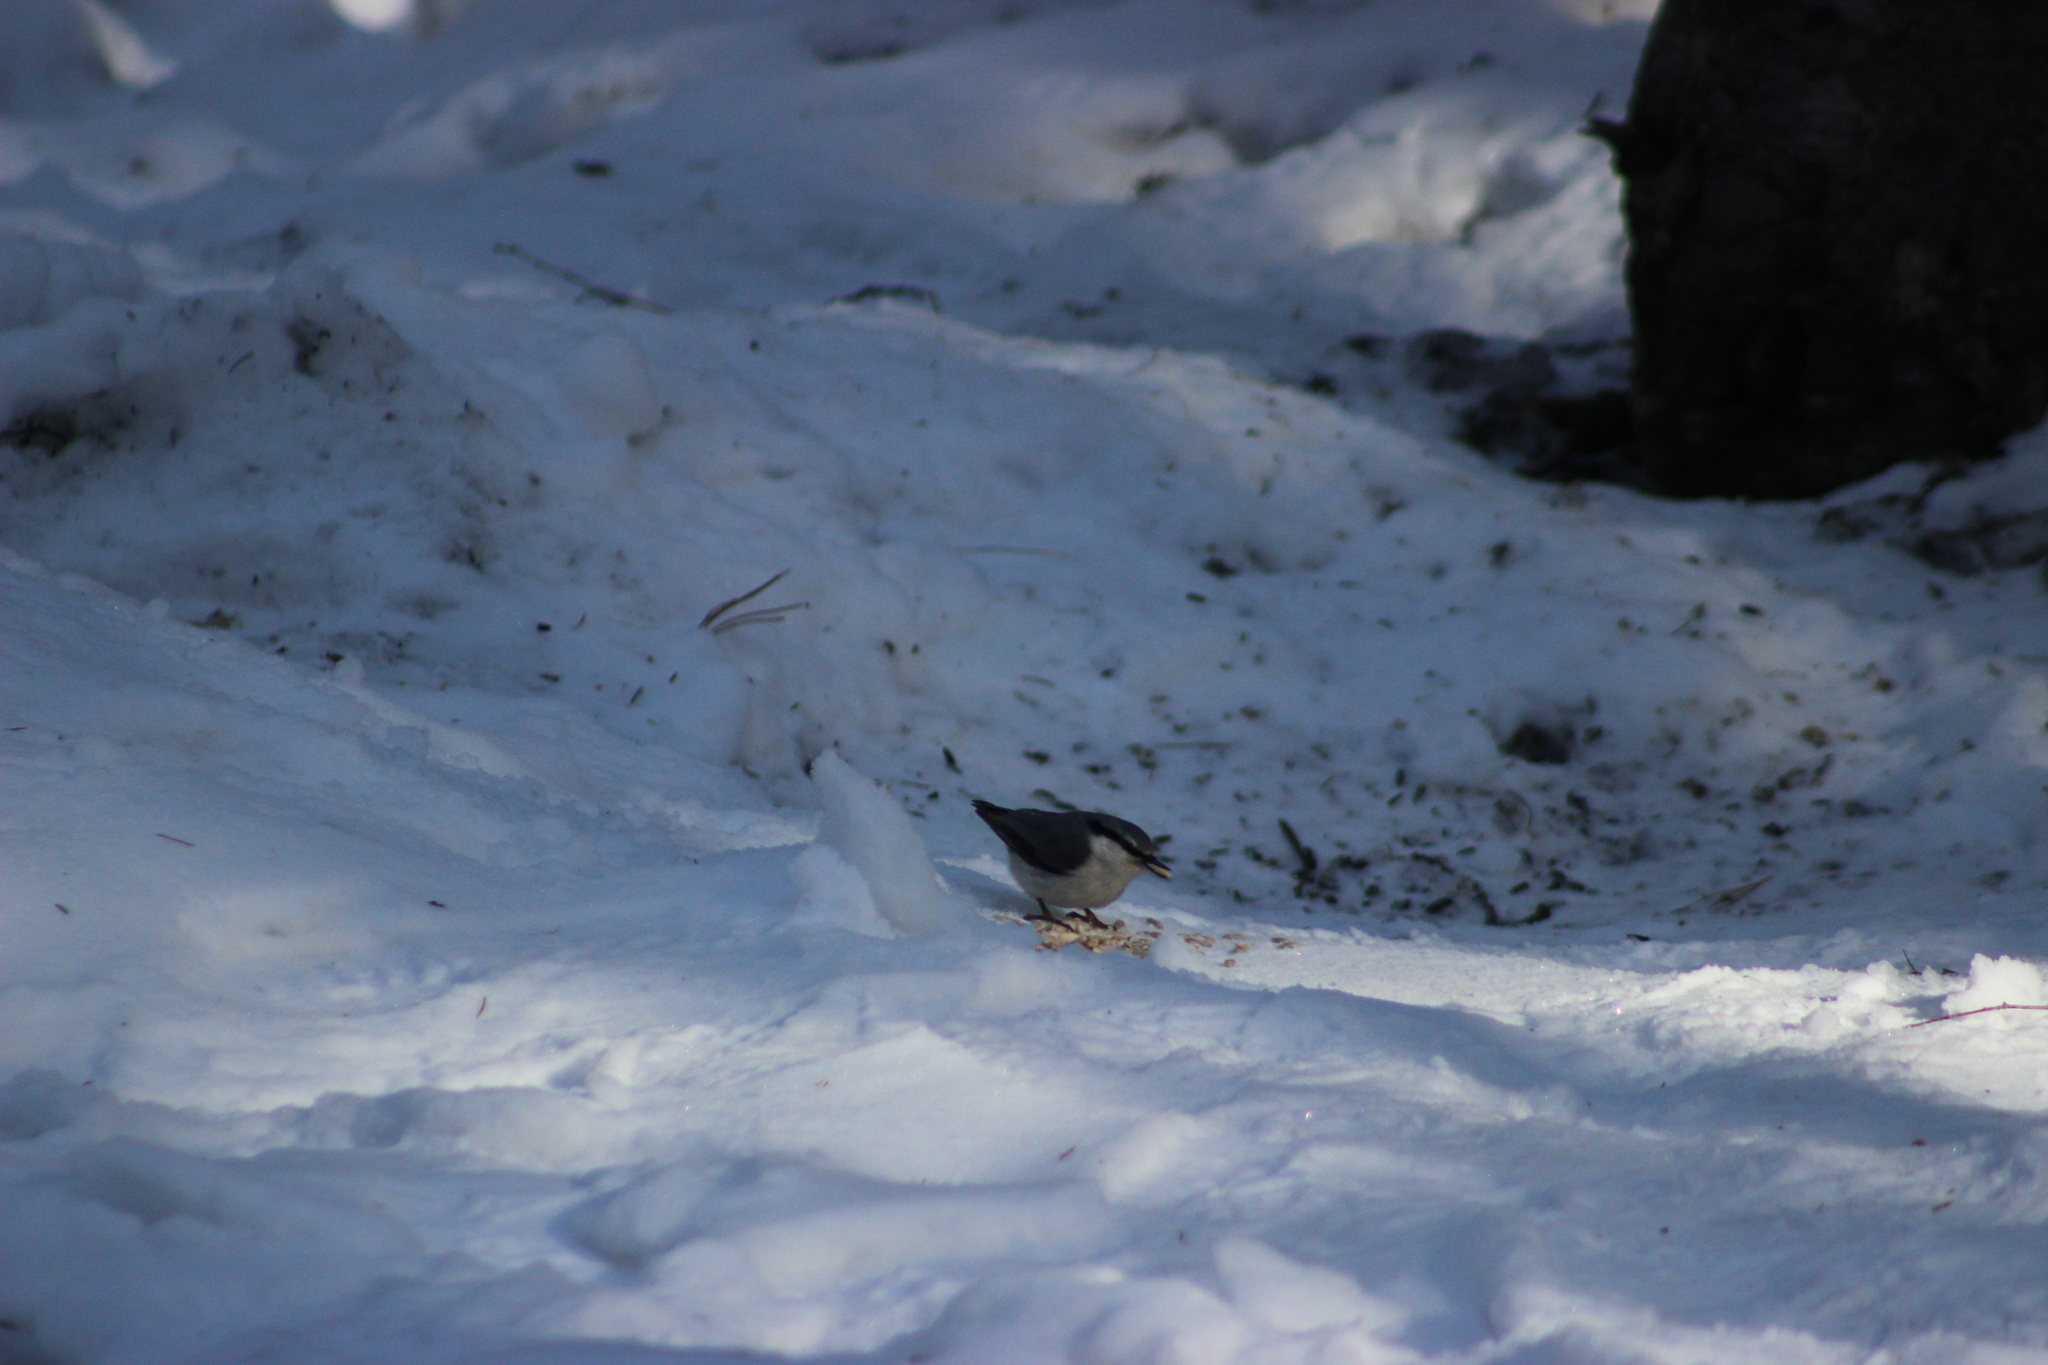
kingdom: Animalia
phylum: Chordata
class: Aves
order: Passeriformes
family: Sittidae
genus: Sitta
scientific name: Sitta europaea
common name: Eurasian nuthatch
